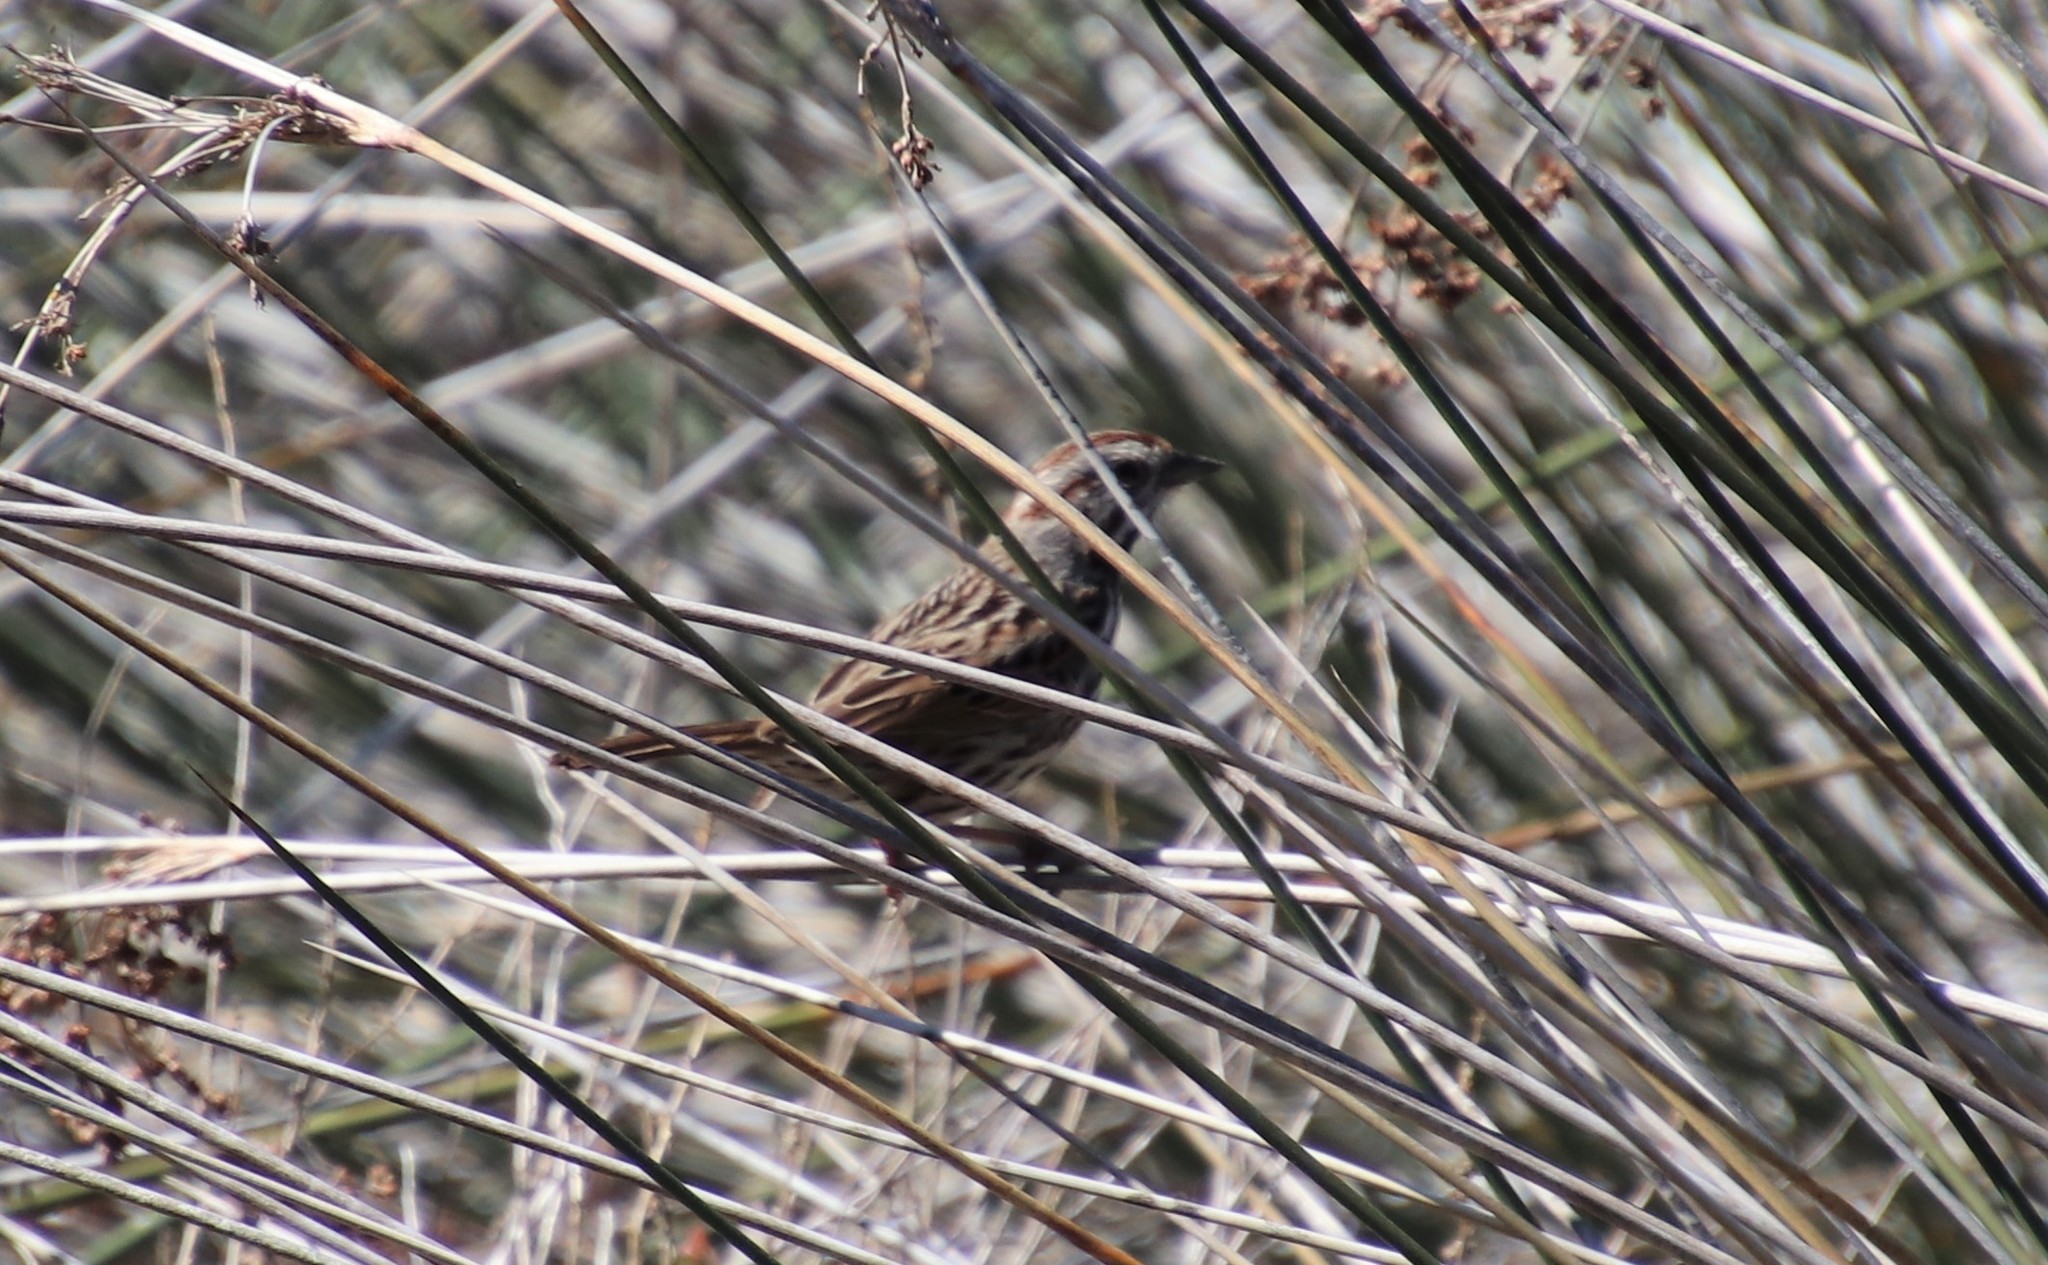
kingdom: Animalia
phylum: Chordata
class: Aves
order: Passeriformes
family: Passerellidae
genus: Melospiza
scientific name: Melospiza melodia
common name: Song sparrow
